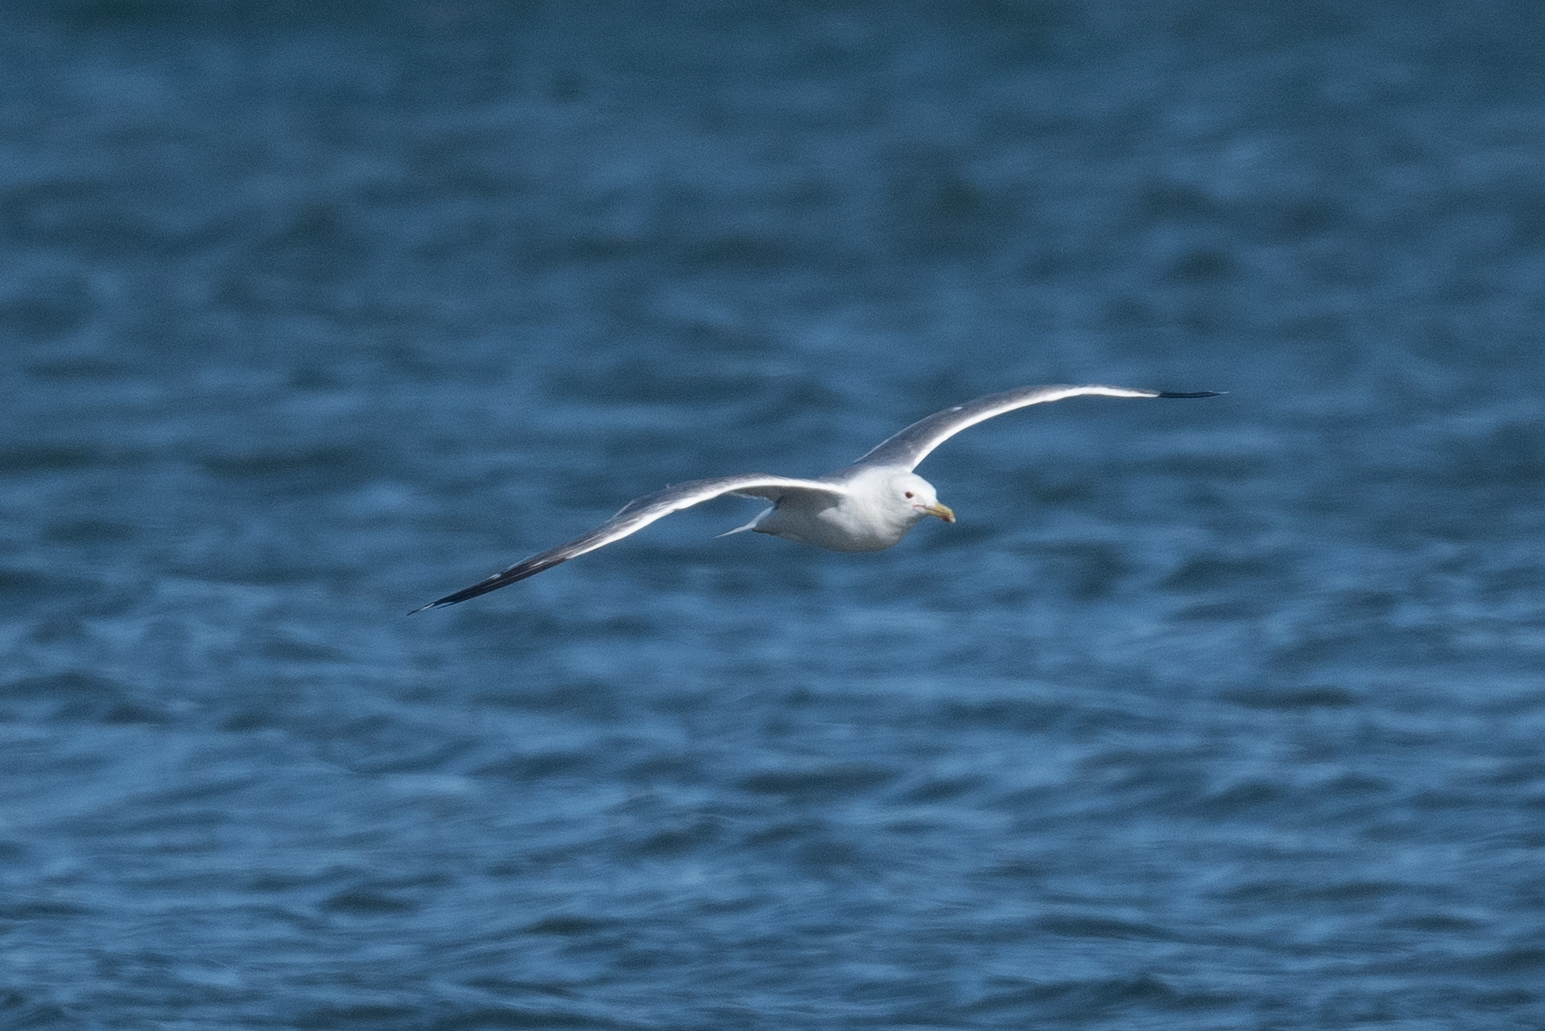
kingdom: Animalia
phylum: Chordata
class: Aves
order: Charadriiformes
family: Laridae
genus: Larus
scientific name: Larus californicus
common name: California gull
